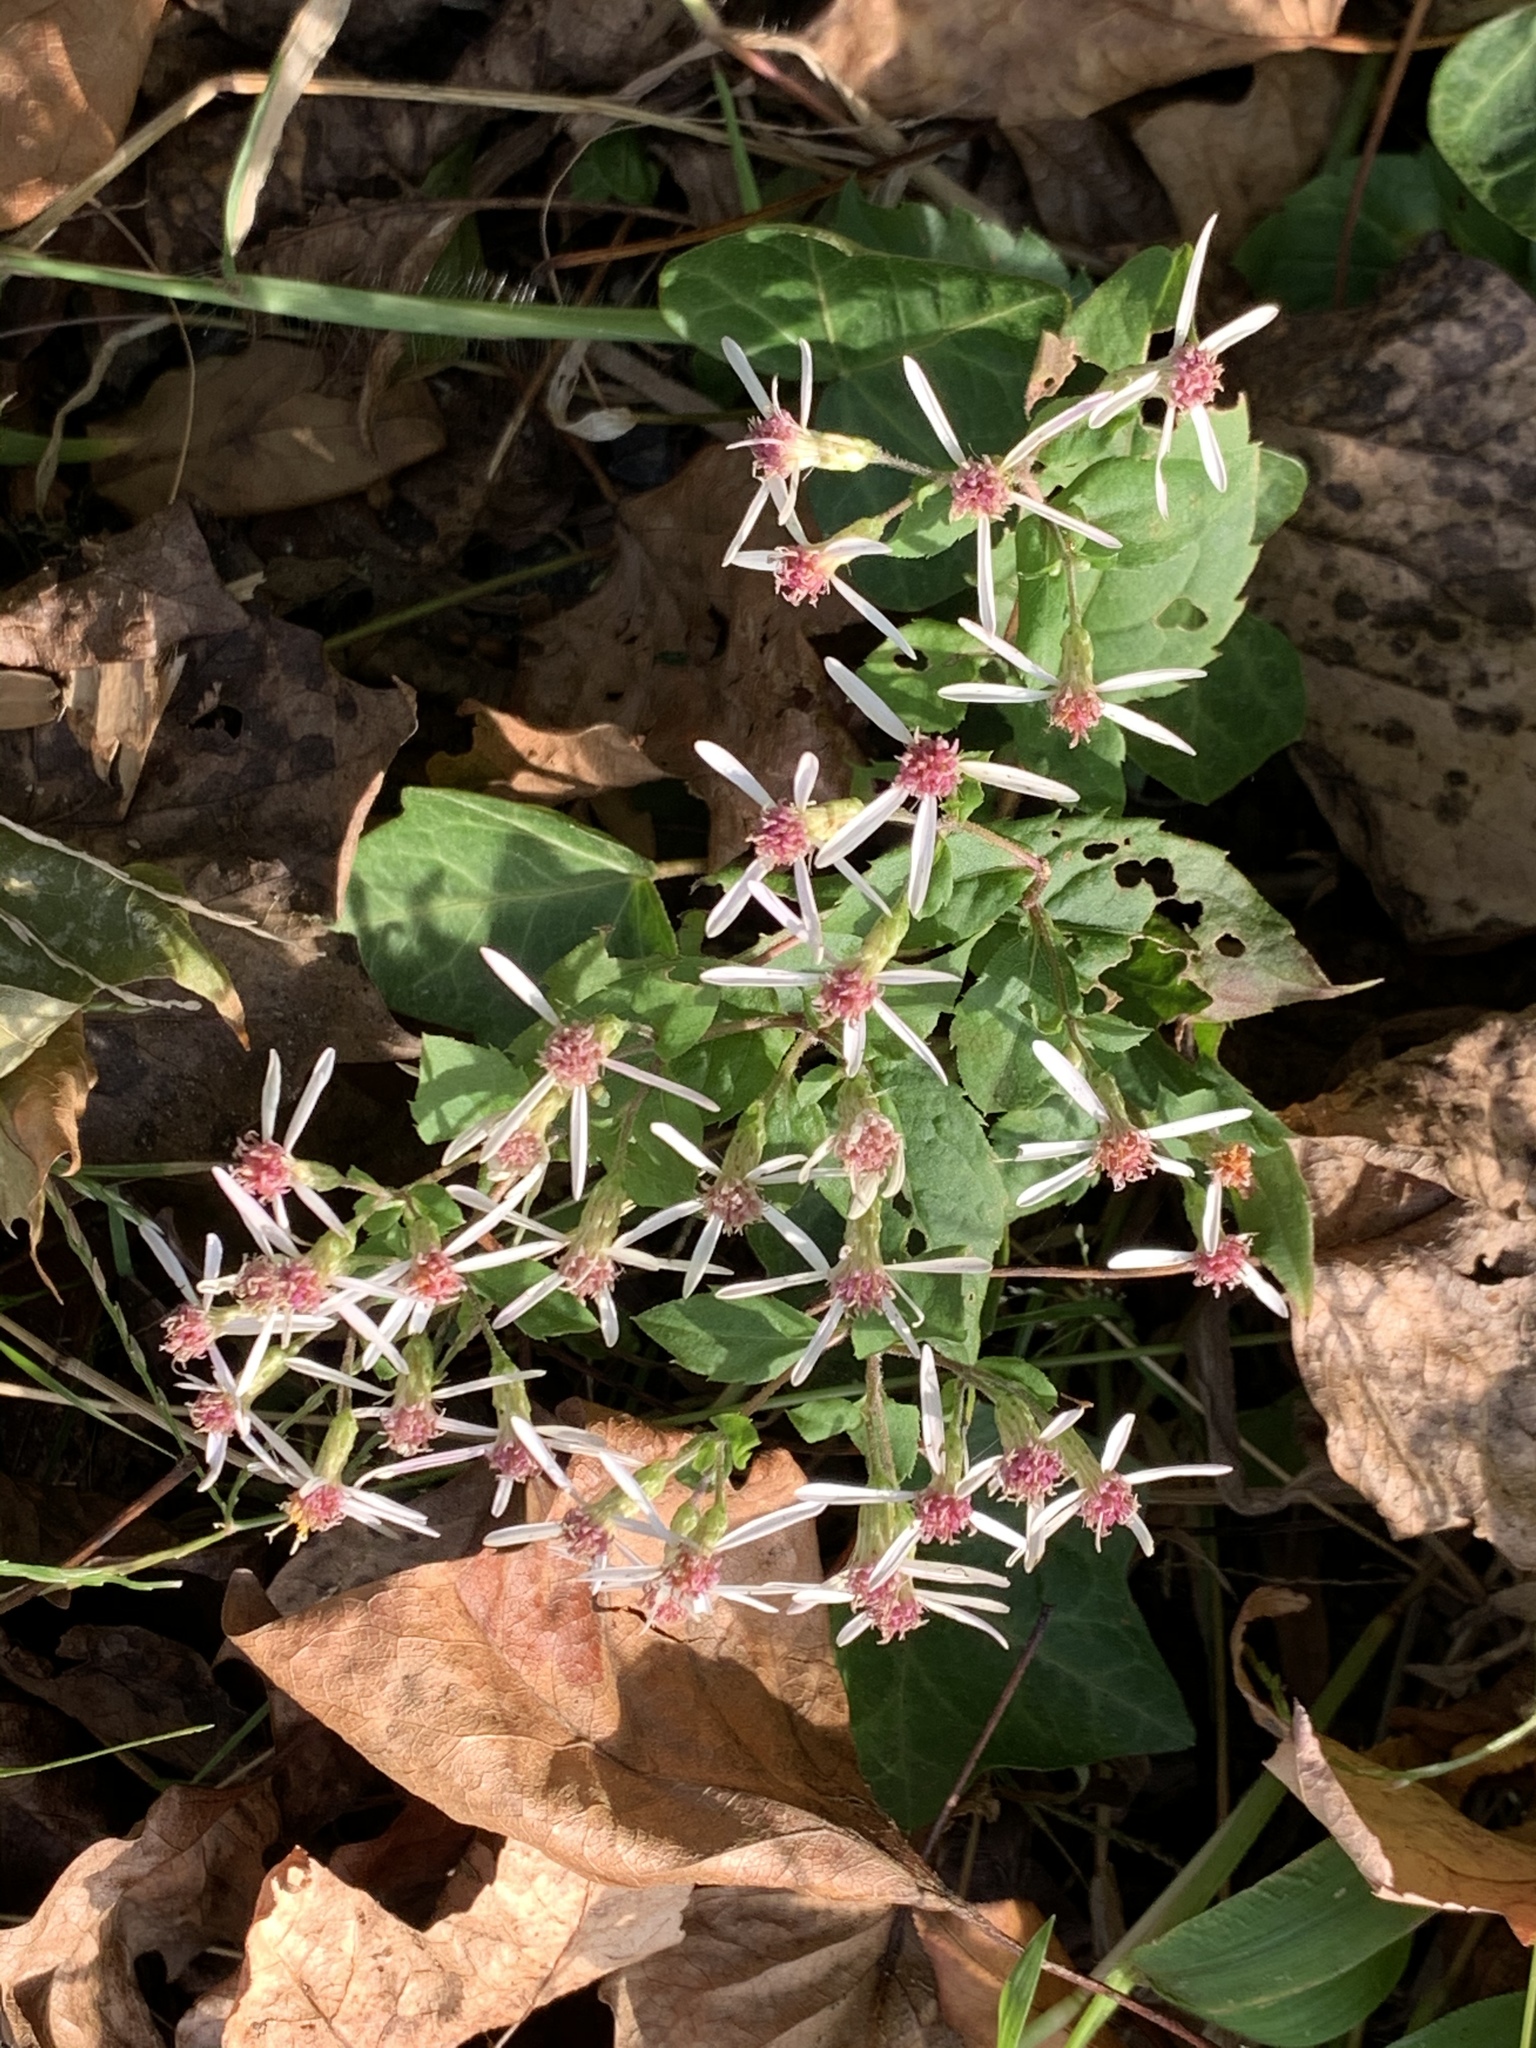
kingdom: Plantae
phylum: Tracheophyta
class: Magnoliopsida
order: Asterales
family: Asteraceae
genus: Eurybia
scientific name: Eurybia divaricata
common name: White wood aster
